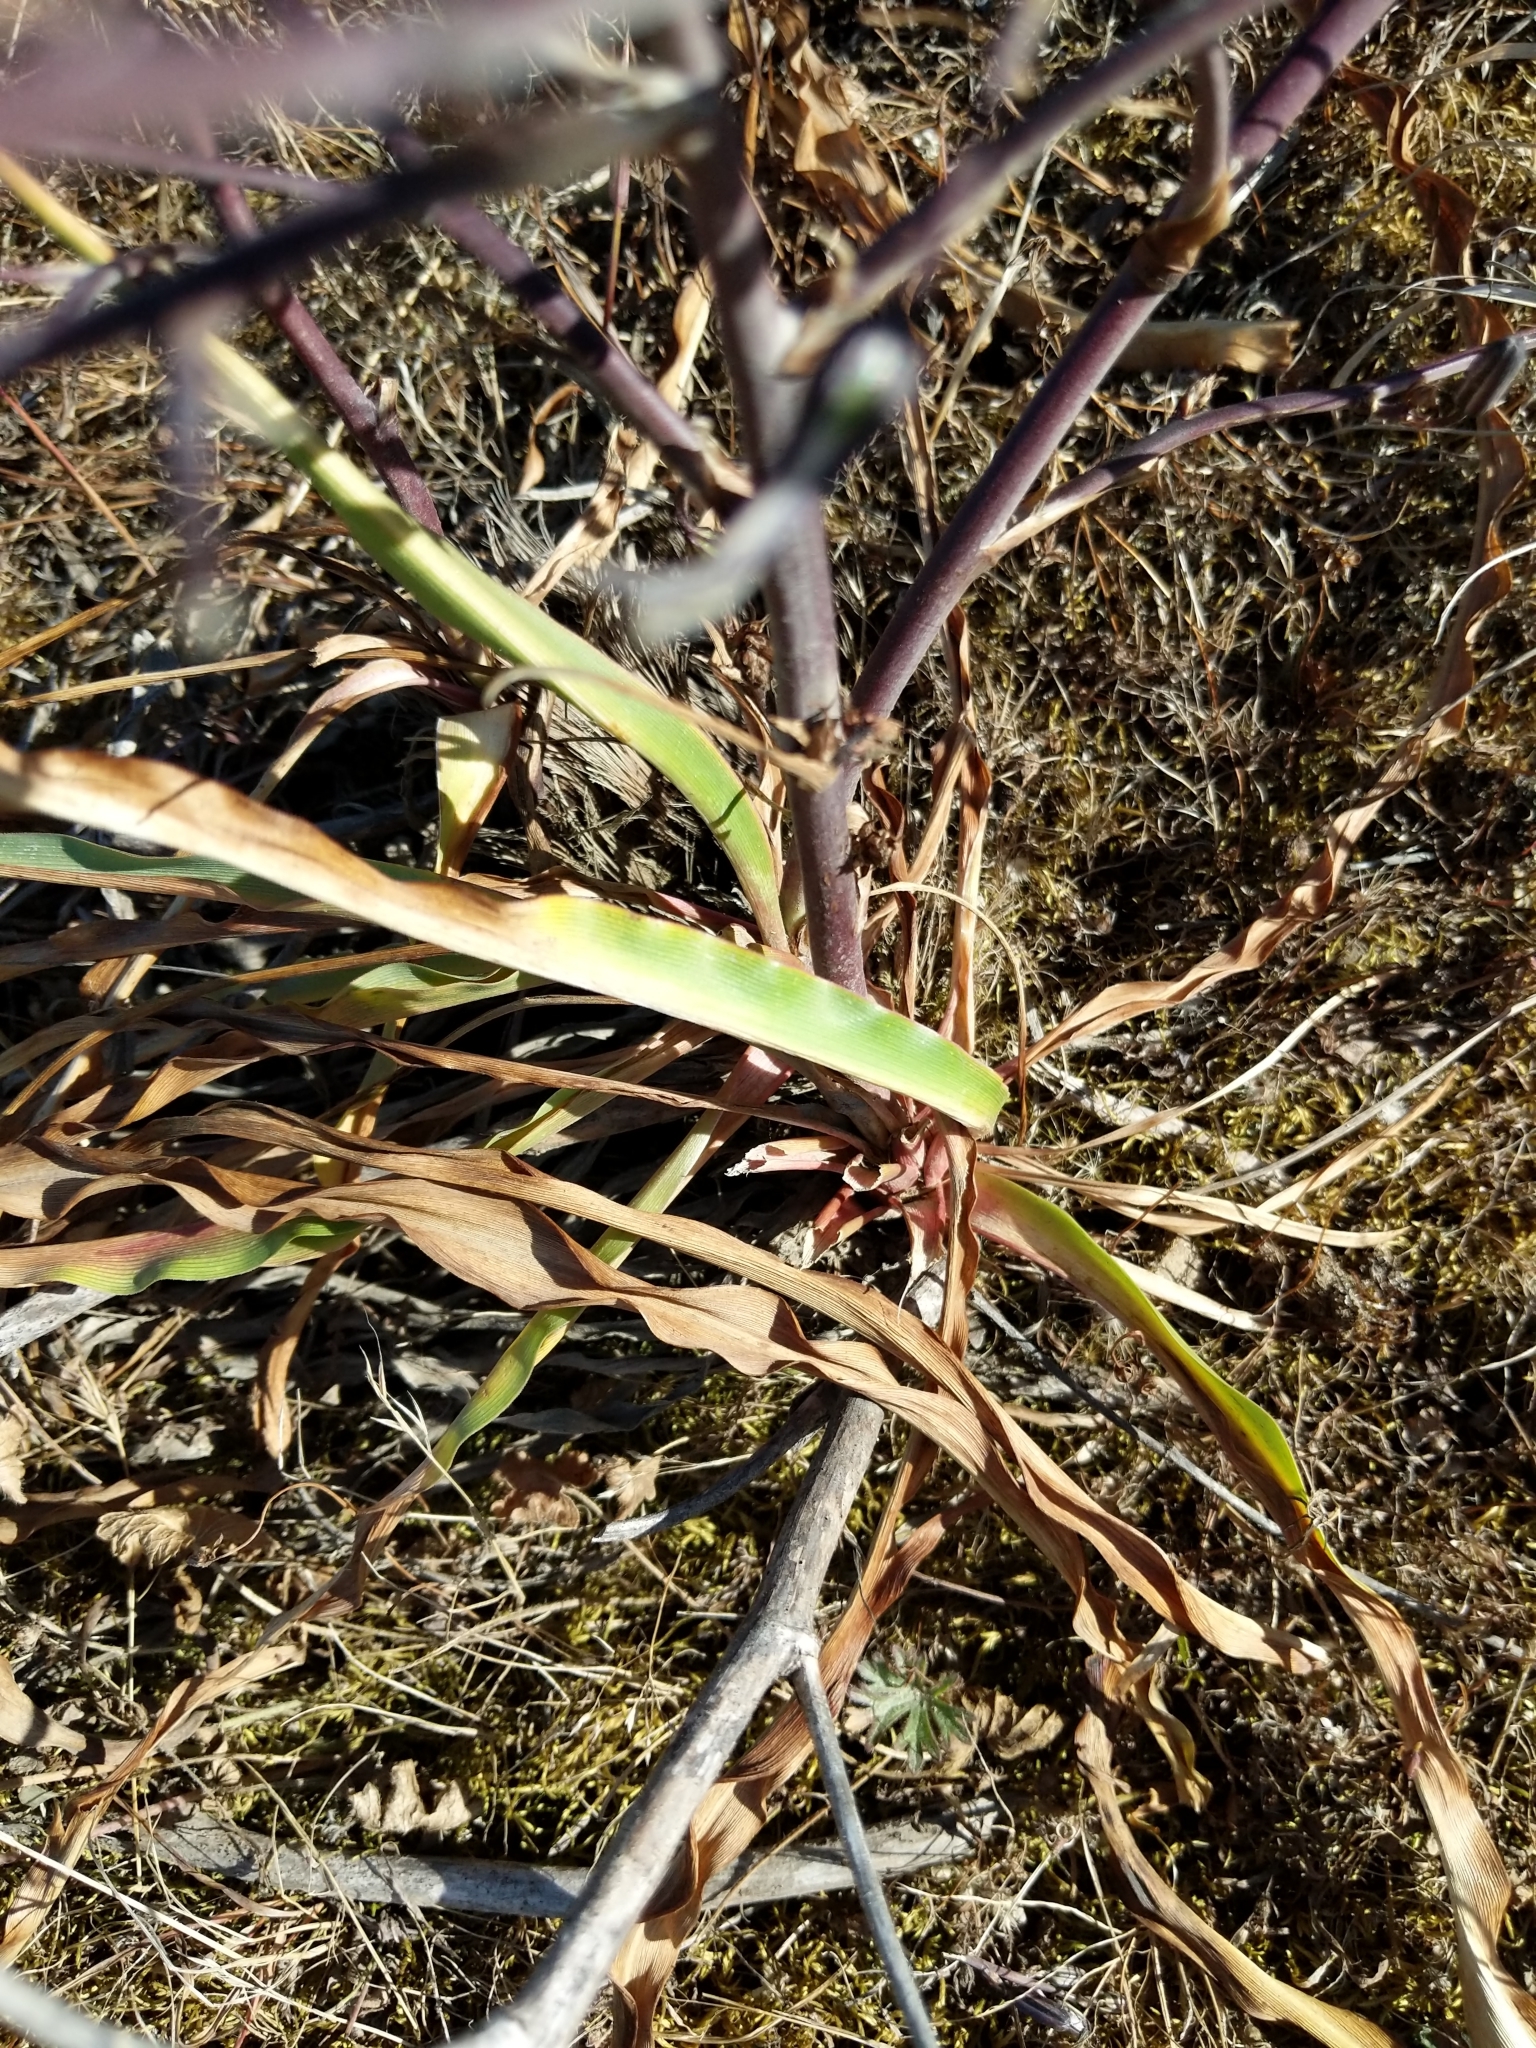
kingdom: Plantae
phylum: Tracheophyta
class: Liliopsida
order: Asparagales
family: Asparagaceae
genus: Chlorogalum
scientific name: Chlorogalum pomeridianum
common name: Amole
